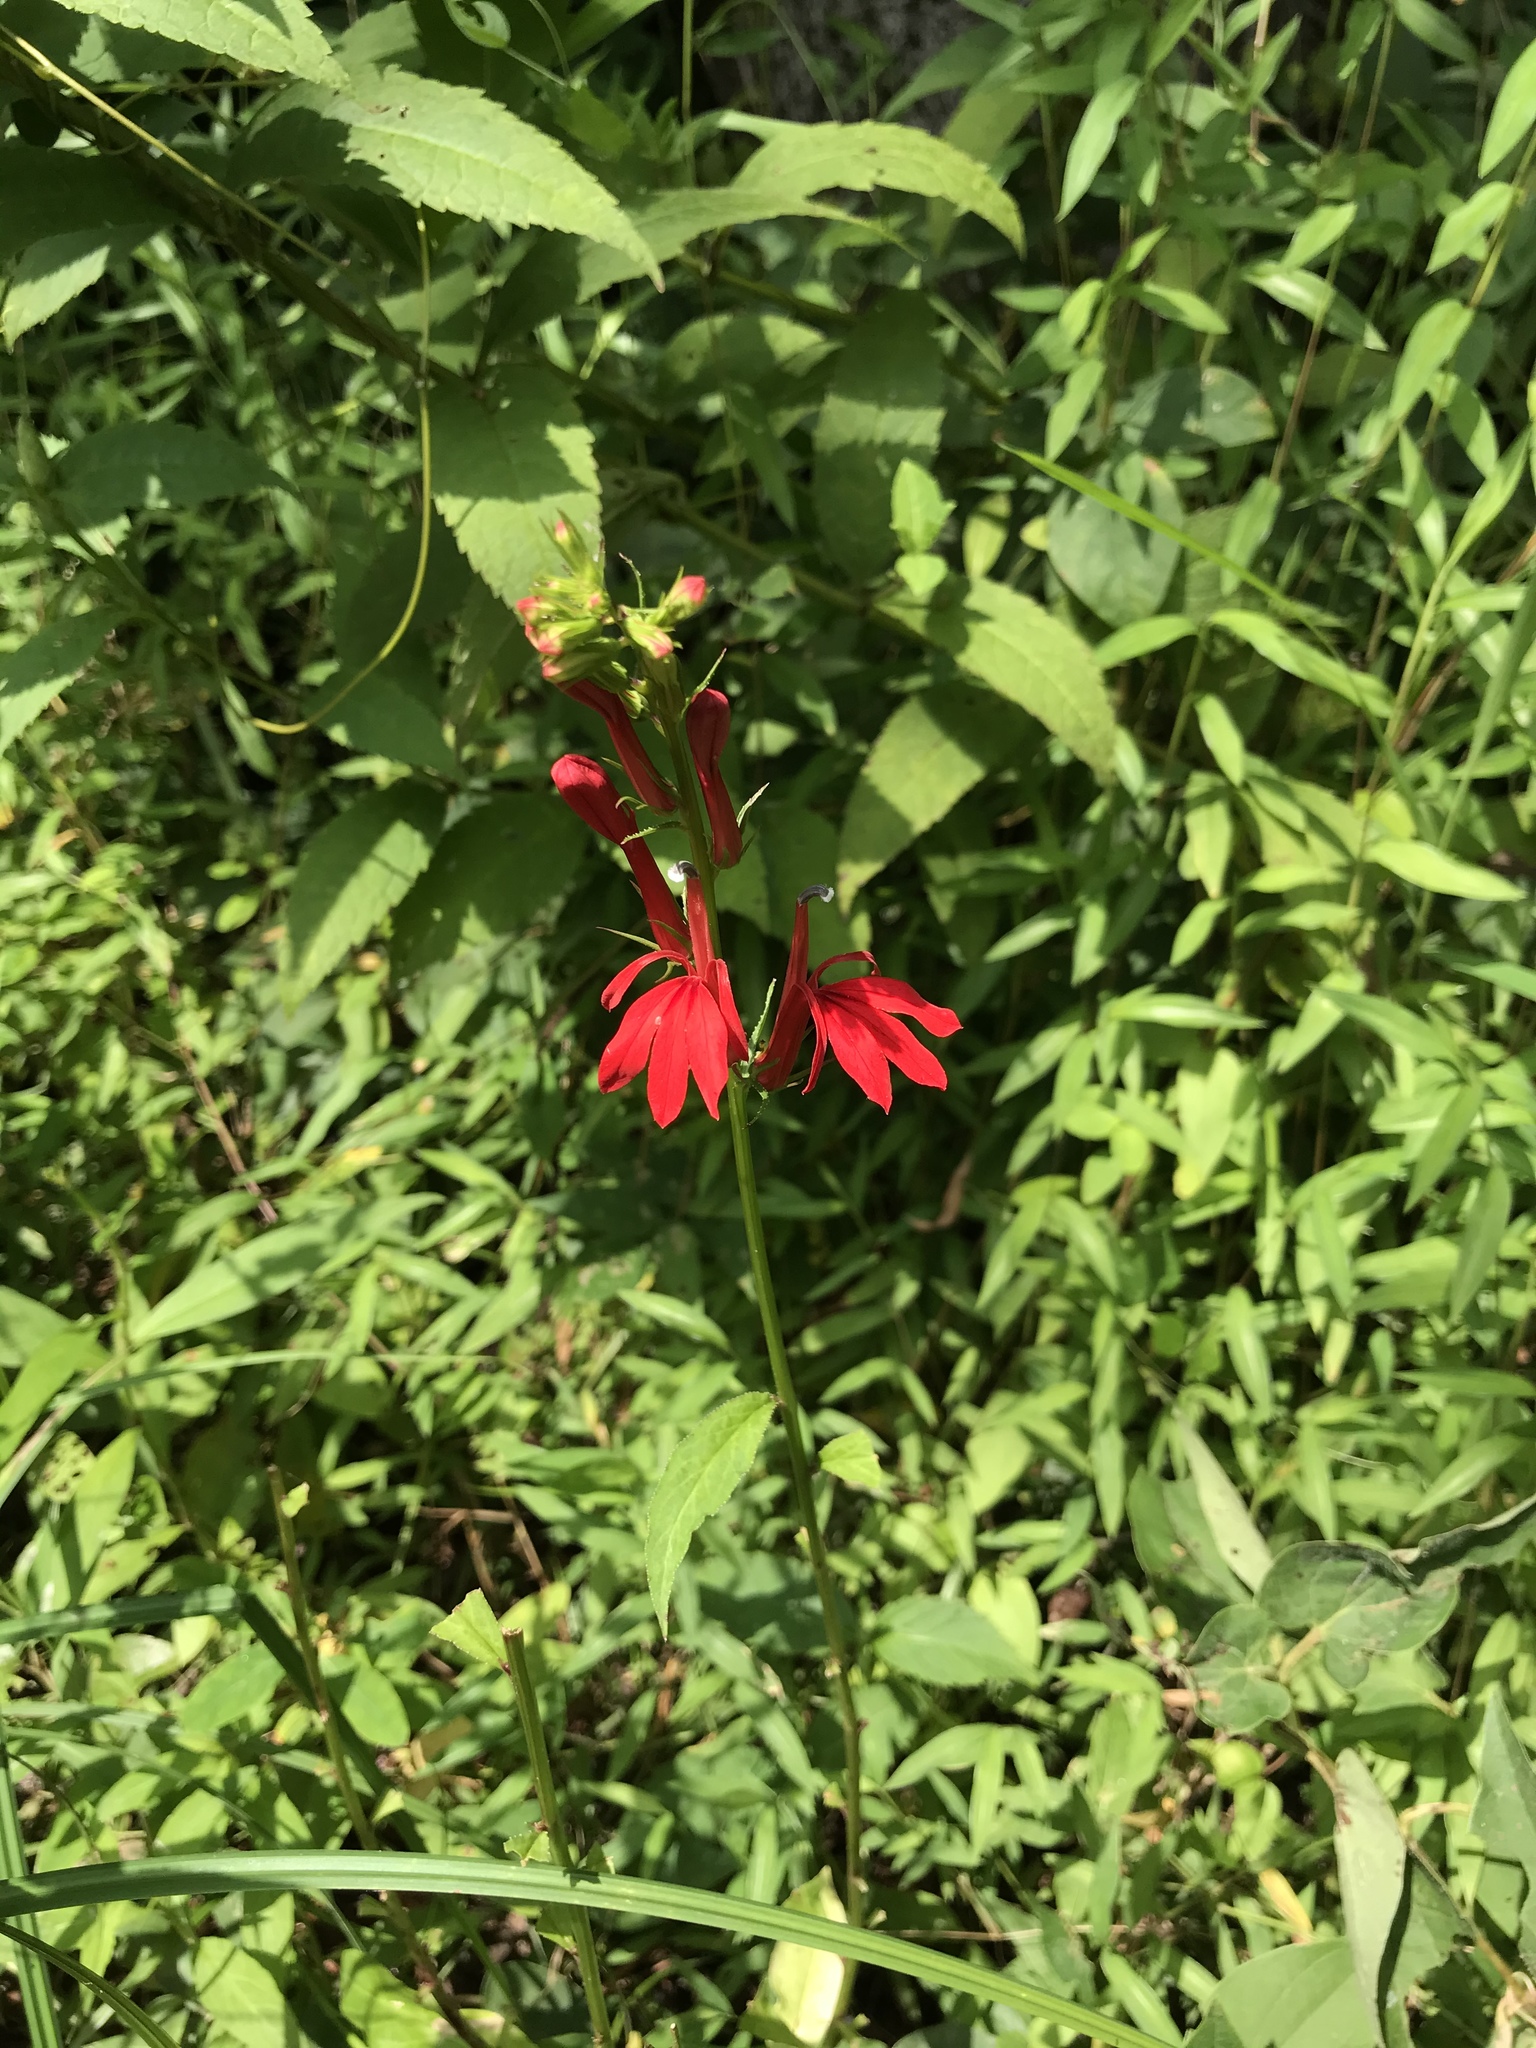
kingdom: Plantae
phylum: Tracheophyta
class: Magnoliopsida
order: Asterales
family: Campanulaceae
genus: Lobelia
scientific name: Lobelia cardinalis
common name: Cardinal flower
